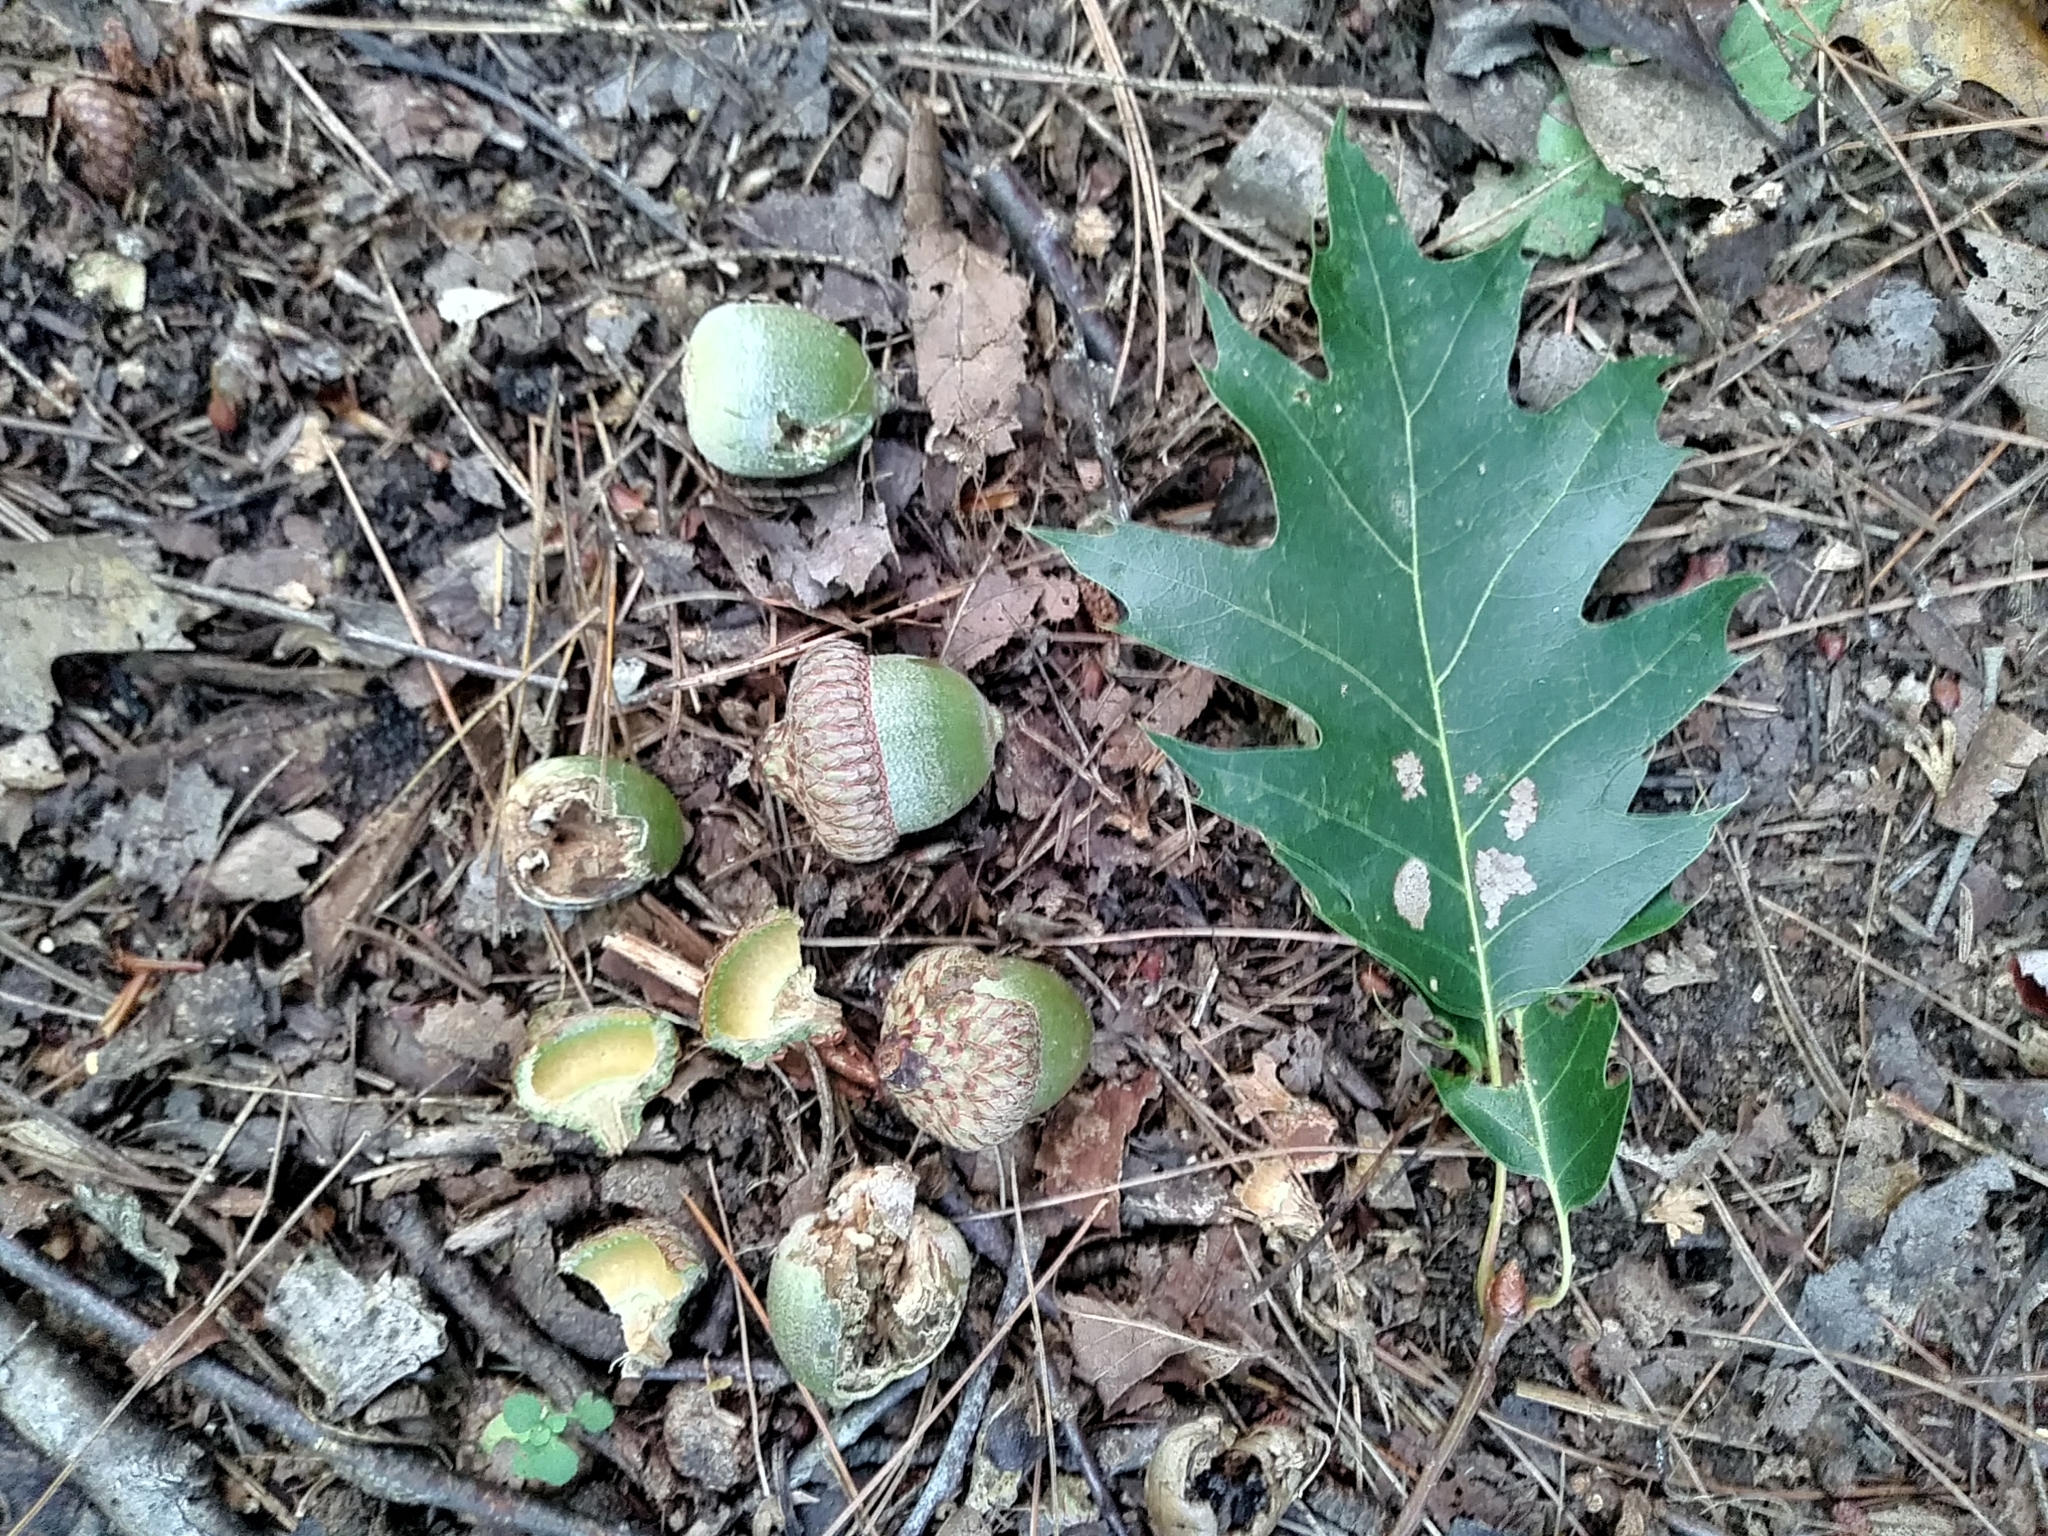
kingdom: Plantae
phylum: Tracheophyta
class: Magnoliopsida
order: Fagales
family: Fagaceae
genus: Quercus
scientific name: Quercus rubra
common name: Red oak
